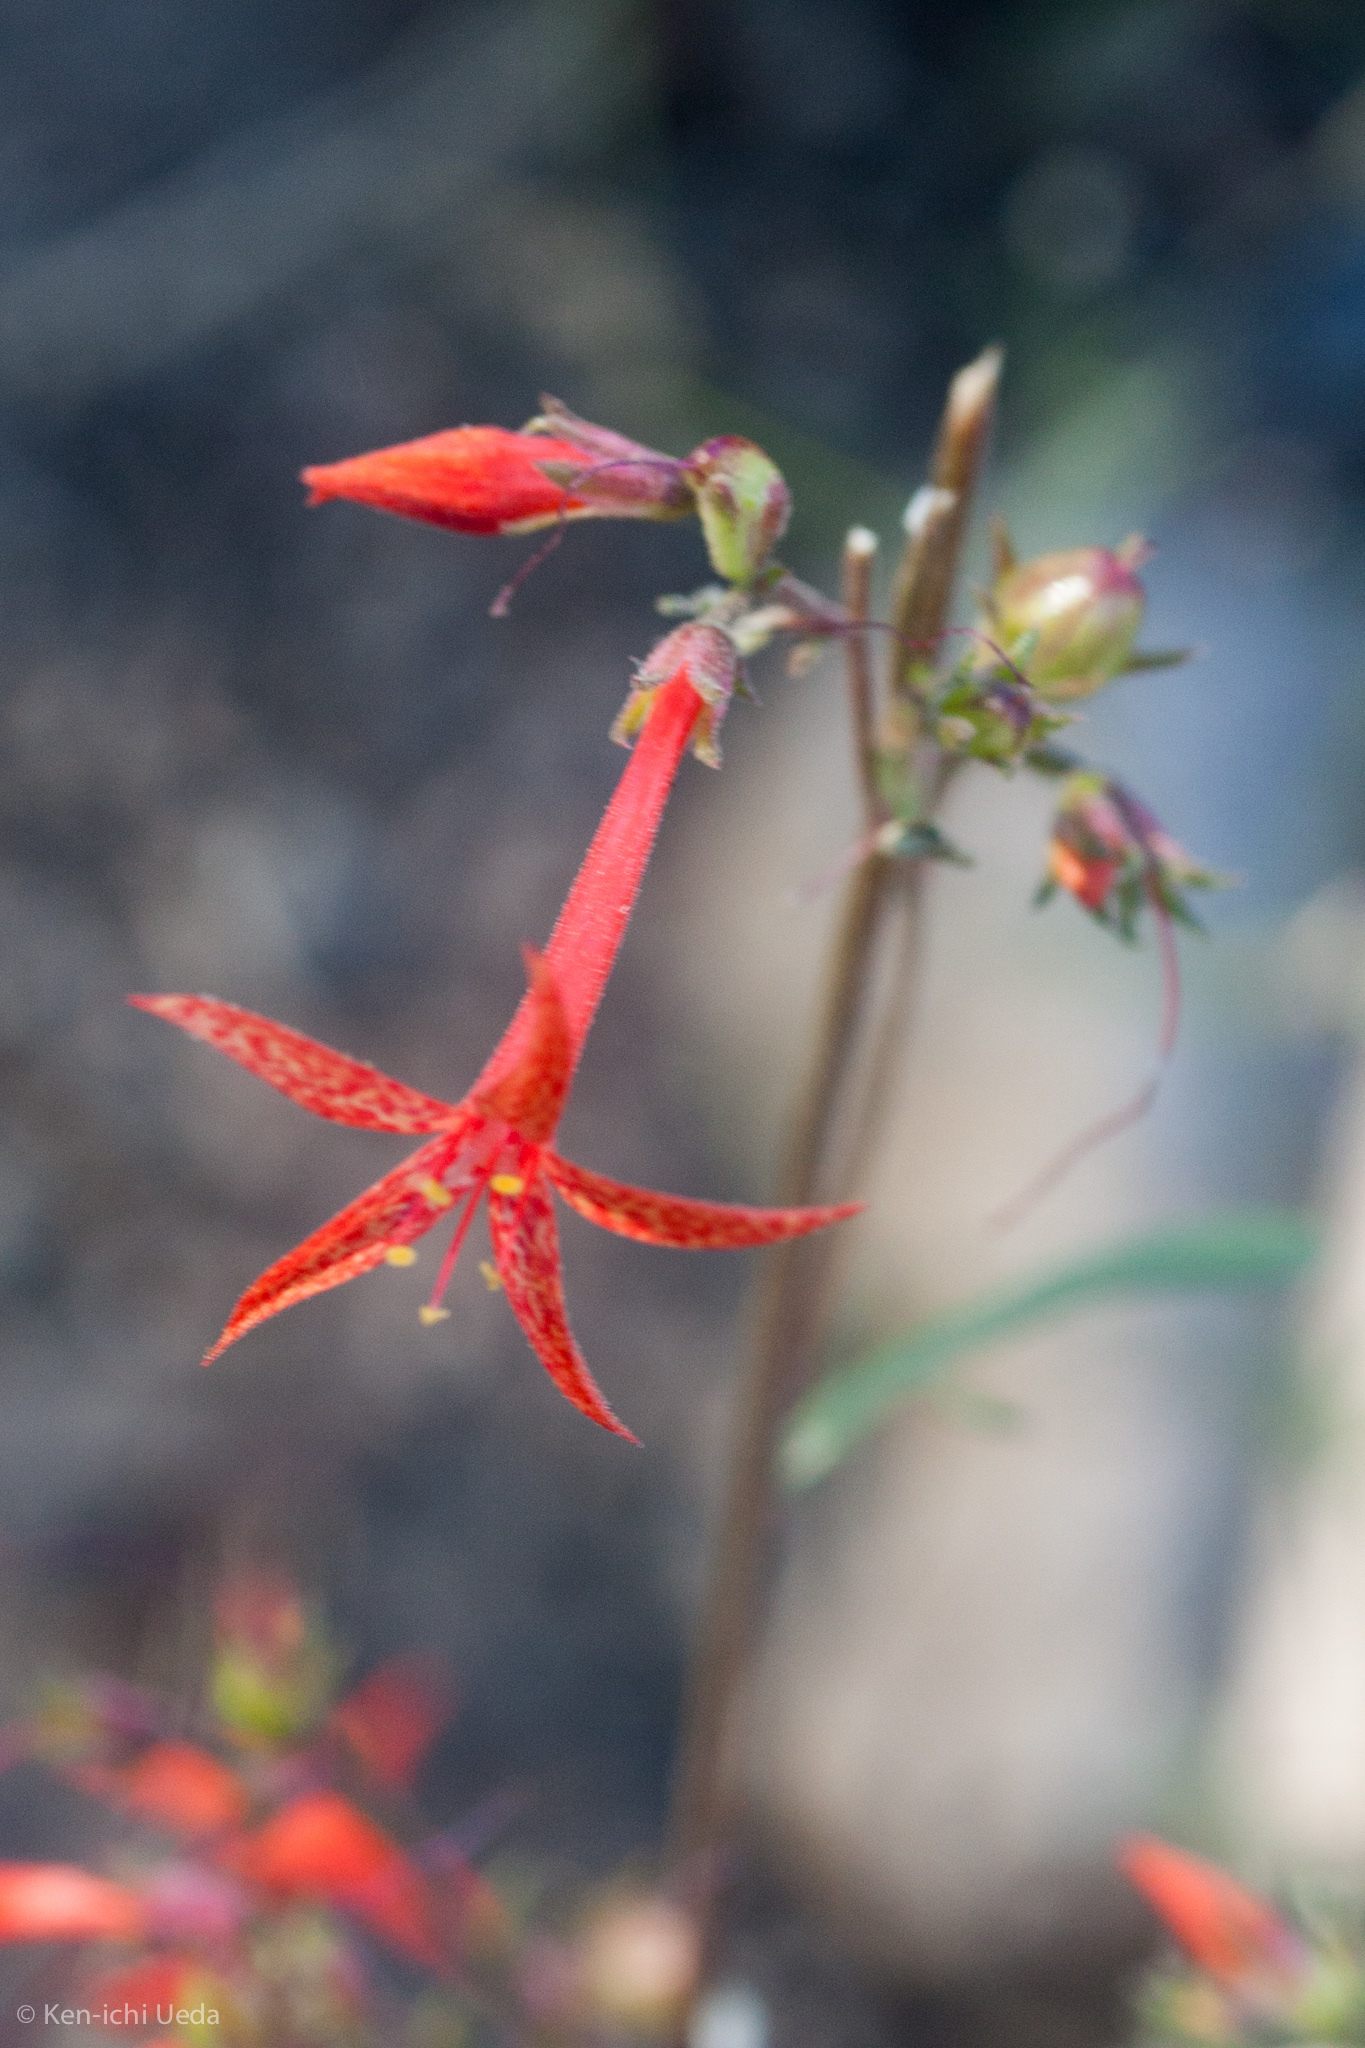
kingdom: Plantae
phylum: Tracheophyta
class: Magnoliopsida
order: Ericales
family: Polemoniaceae
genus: Ipomopsis
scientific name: Ipomopsis aggregata
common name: Scarlet gilia
